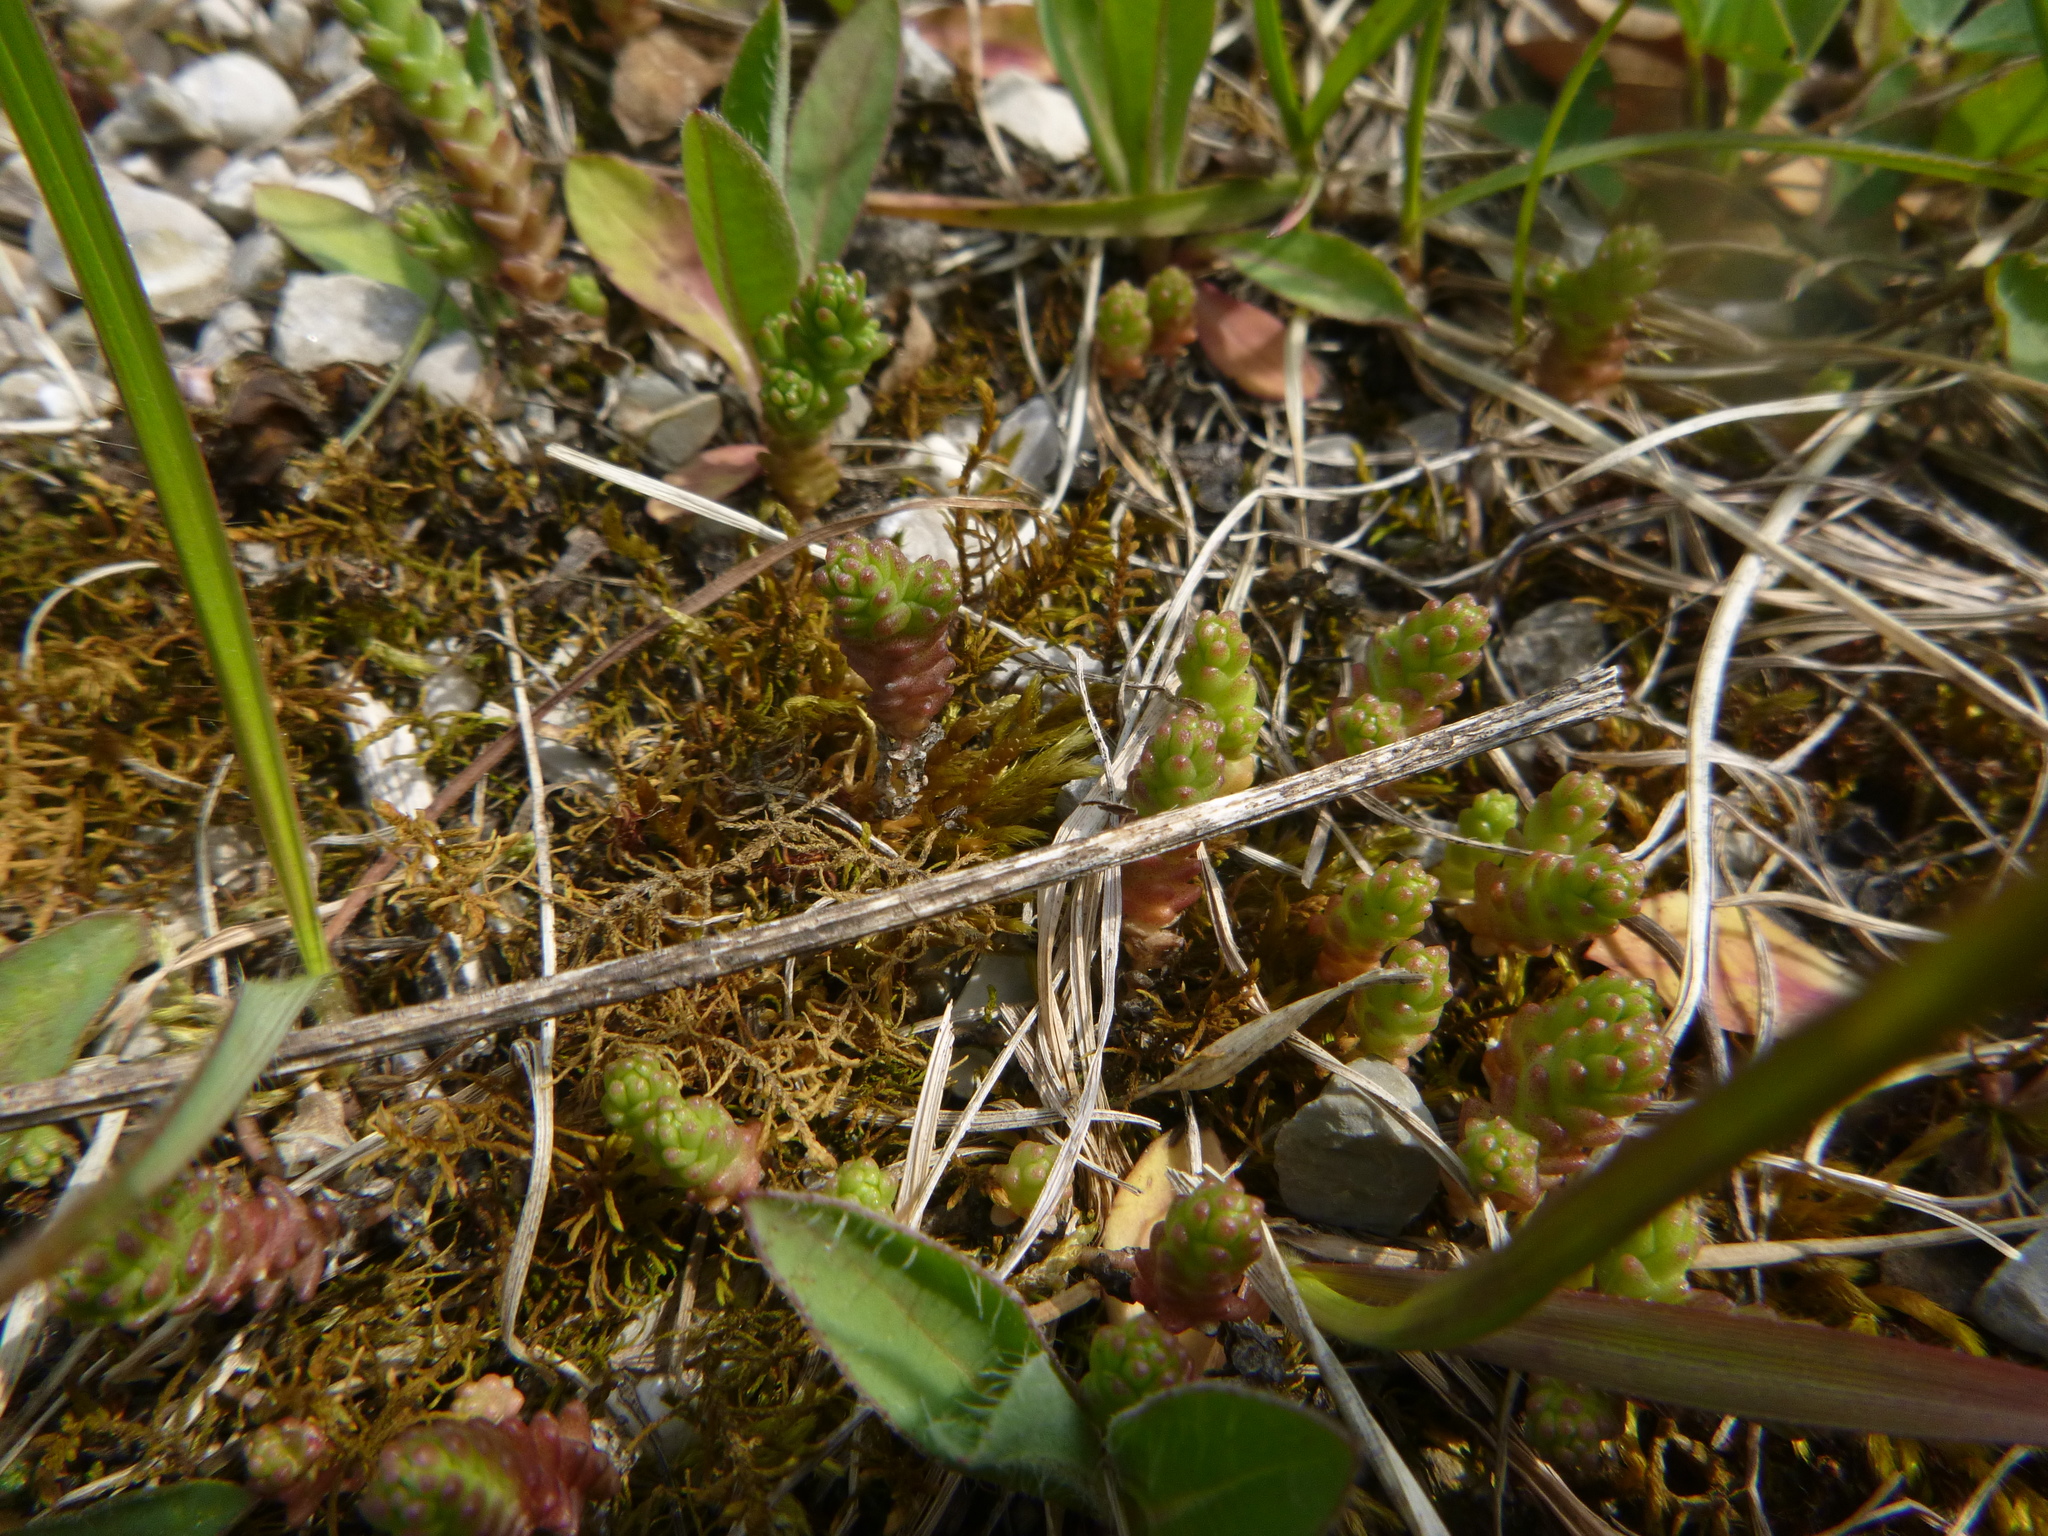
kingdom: Plantae
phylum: Tracheophyta
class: Magnoliopsida
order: Saxifragales
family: Crassulaceae
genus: Sedum
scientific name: Sedum acre
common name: Biting stonecrop
